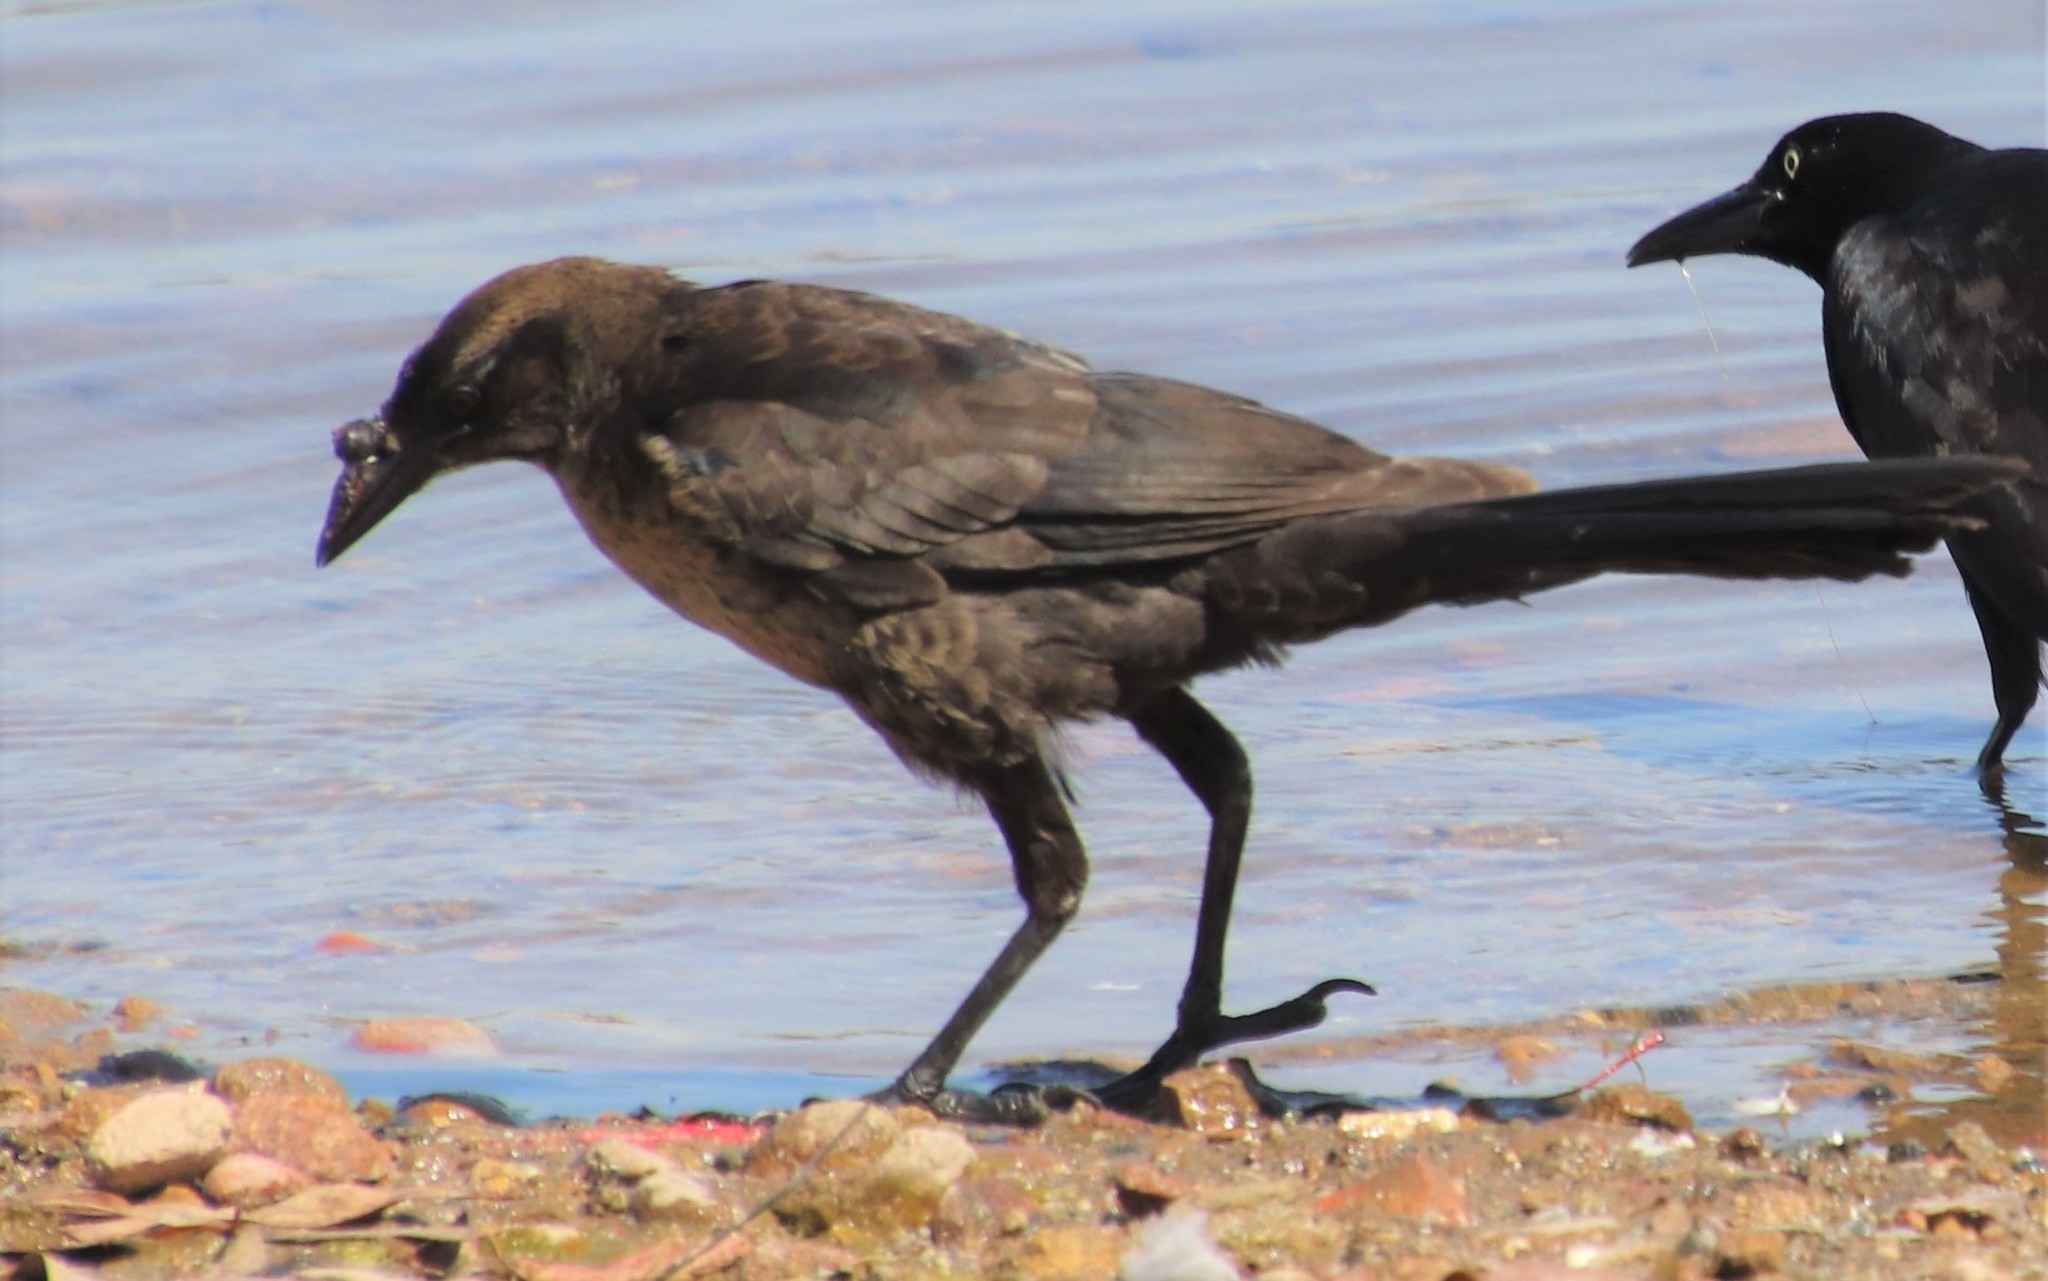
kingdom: Animalia
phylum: Chordata
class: Aves
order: Passeriformes
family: Icteridae
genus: Quiscalus
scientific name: Quiscalus mexicanus
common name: Great-tailed grackle
